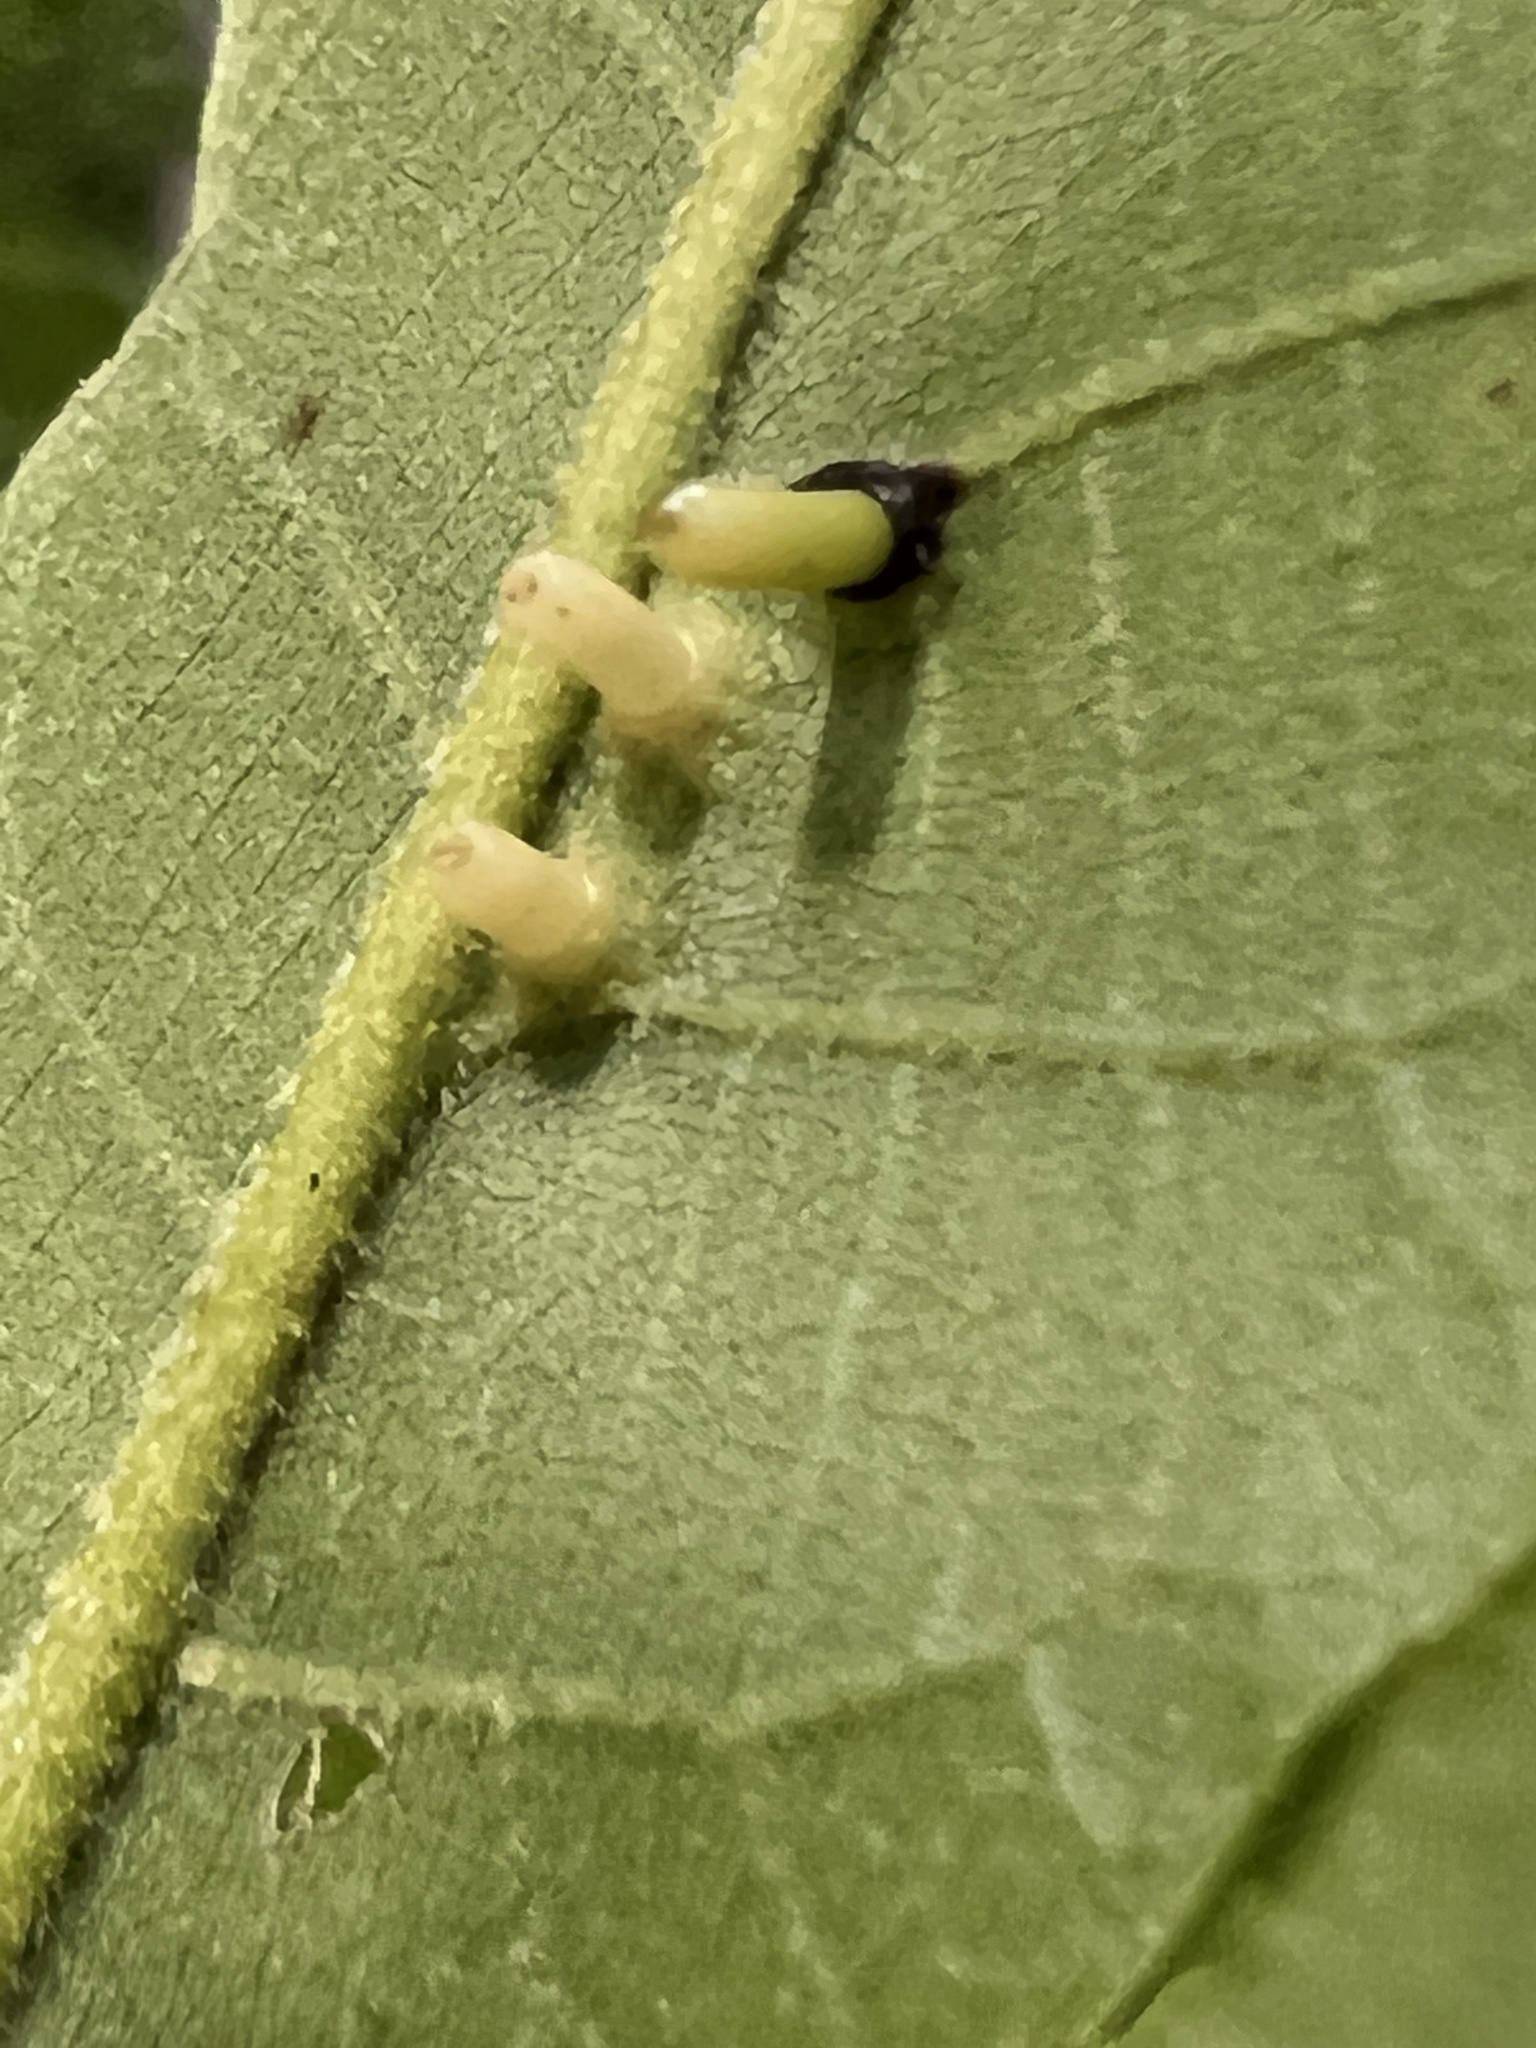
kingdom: Animalia
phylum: Arthropoda
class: Insecta
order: Diptera
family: Cecidomyiidae
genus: Caryomyia
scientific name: Caryomyia tubicola
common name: Hickory bullet gall midge
